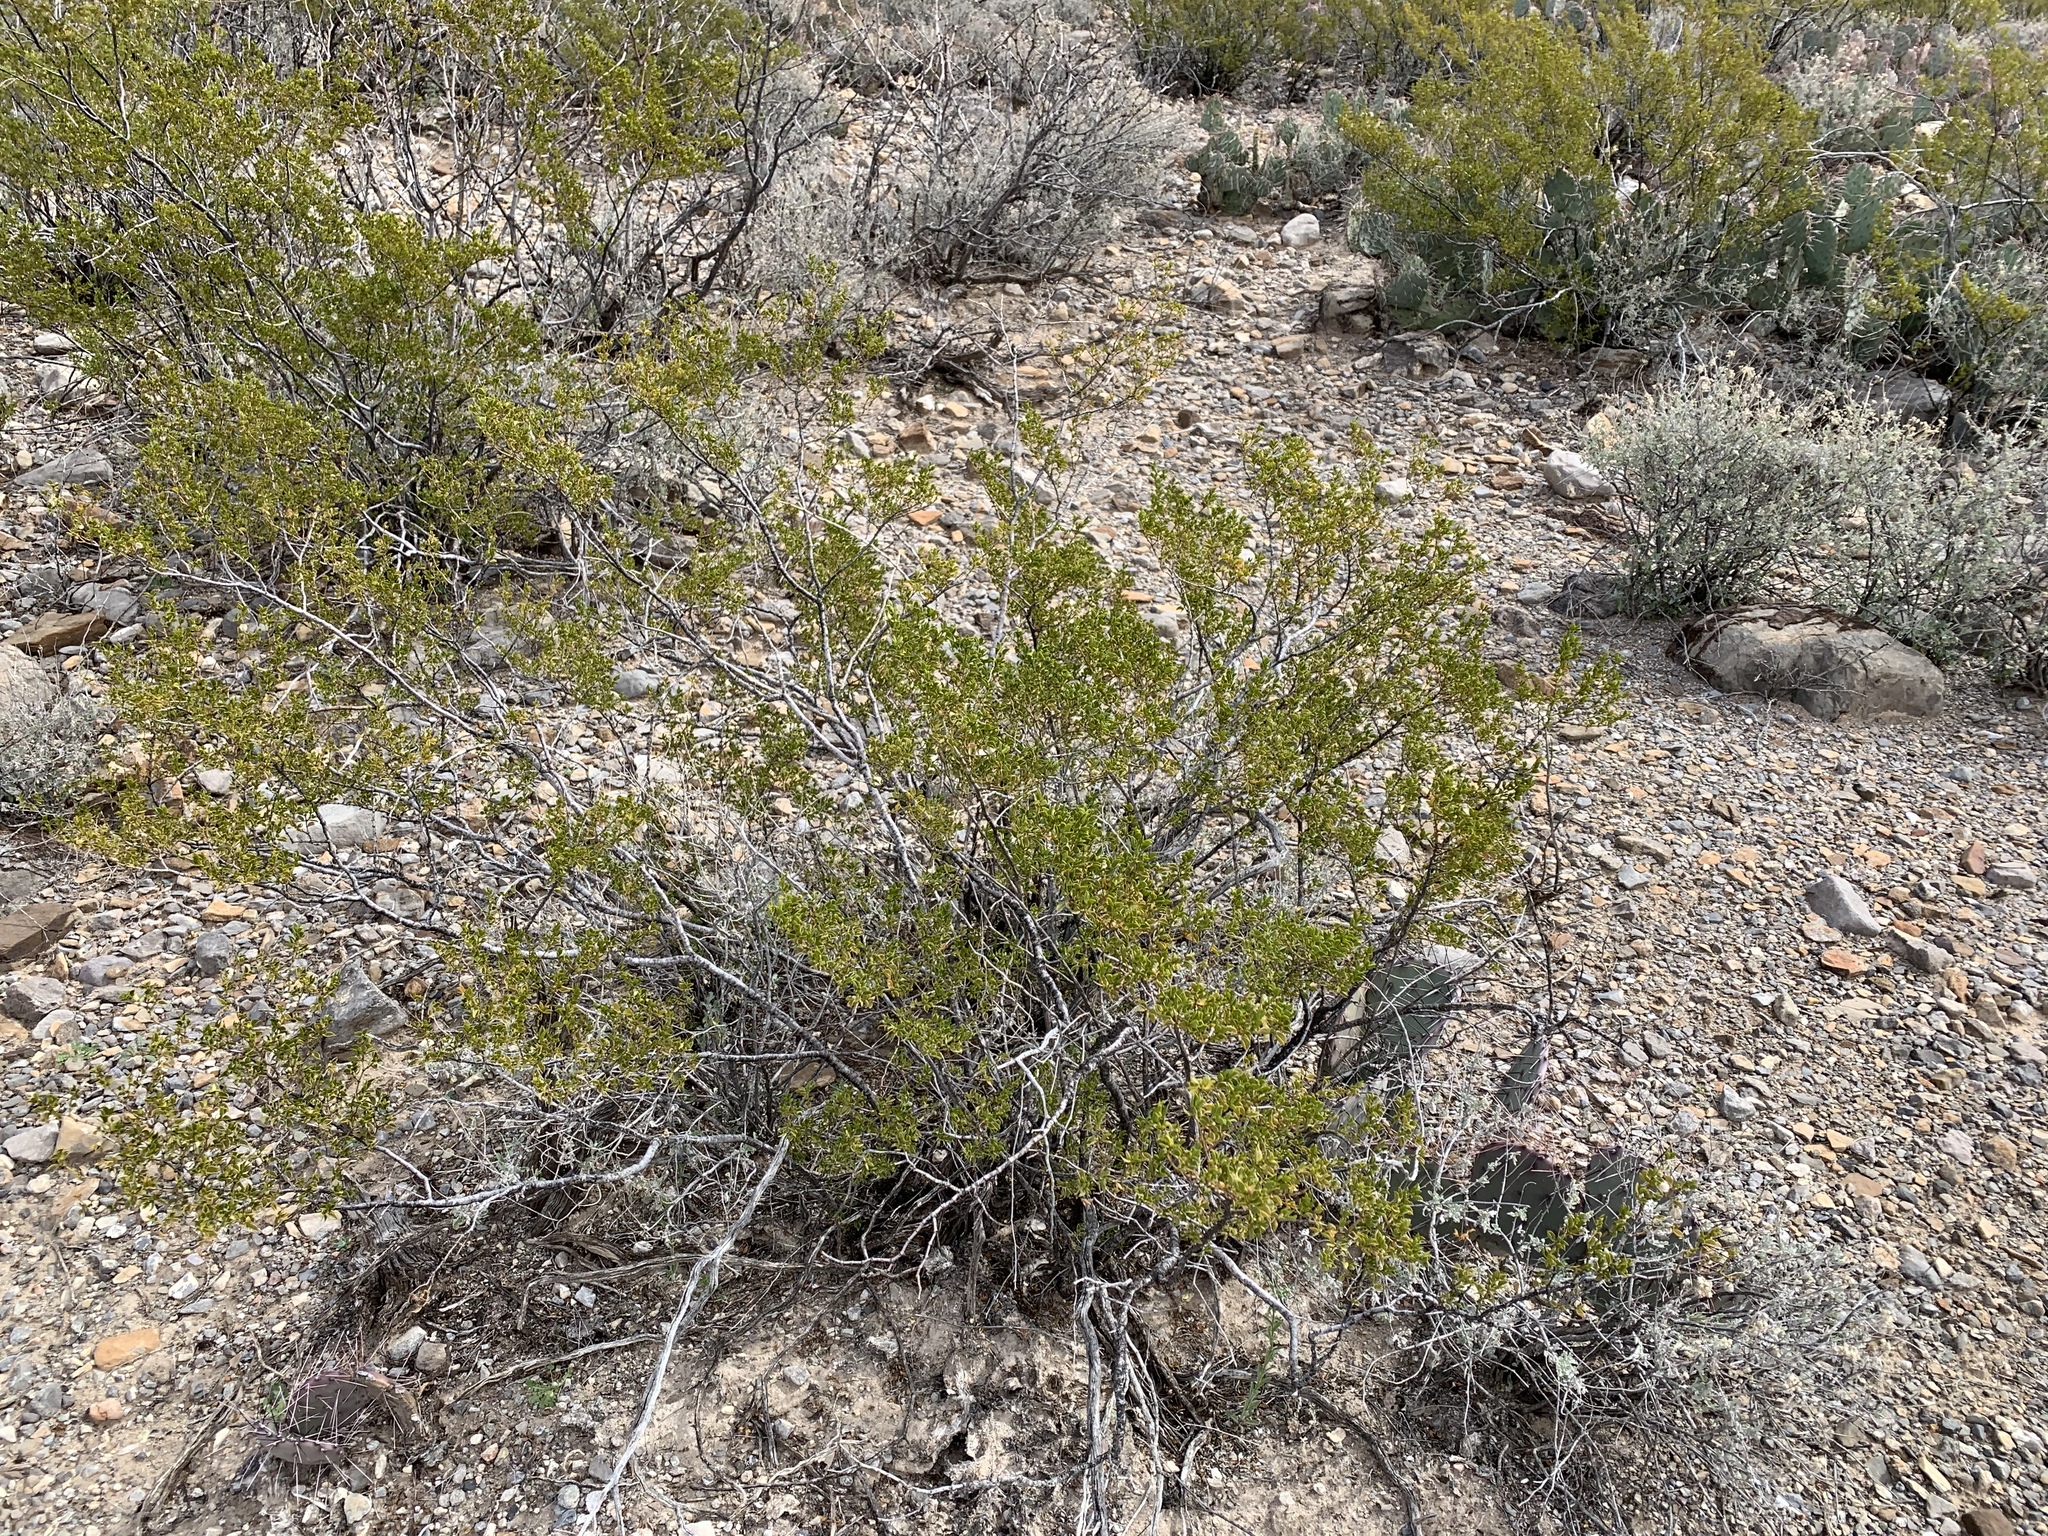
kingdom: Plantae
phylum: Tracheophyta
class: Magnoliopsida
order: Zygophyllales
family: Zygophyllaceae
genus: Larrea
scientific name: Larrea tridentata
